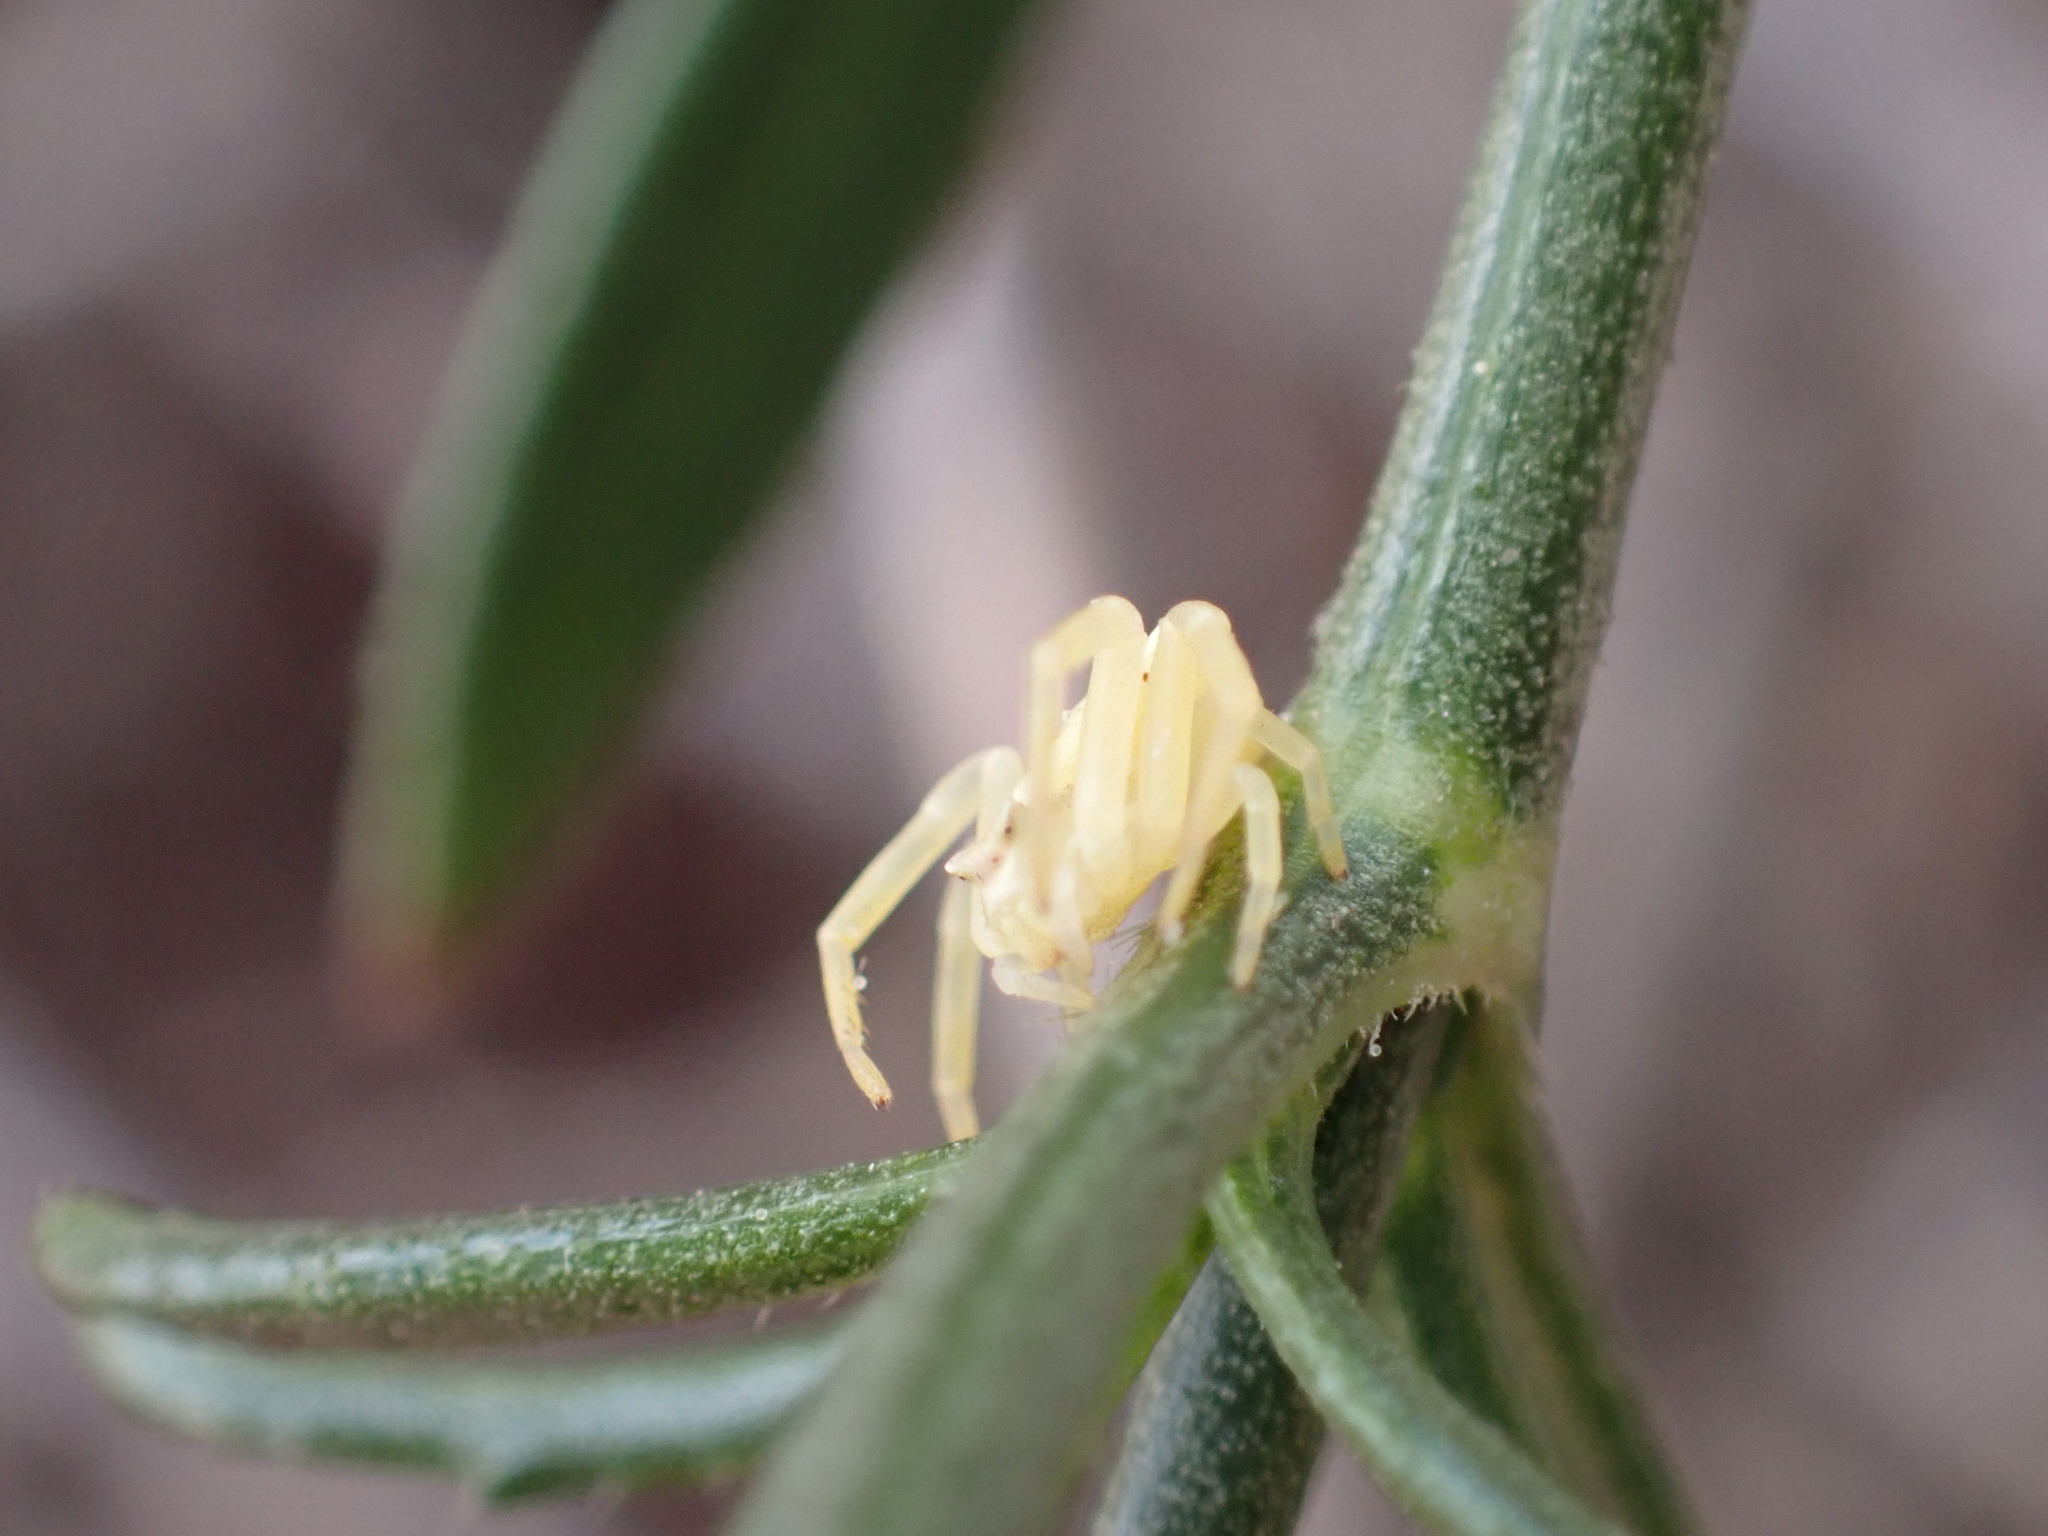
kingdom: Animalia
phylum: Arthropoda
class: Arachnida
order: Araneae
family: Thomisidae
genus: Thomisus
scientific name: Thomisus onustus
